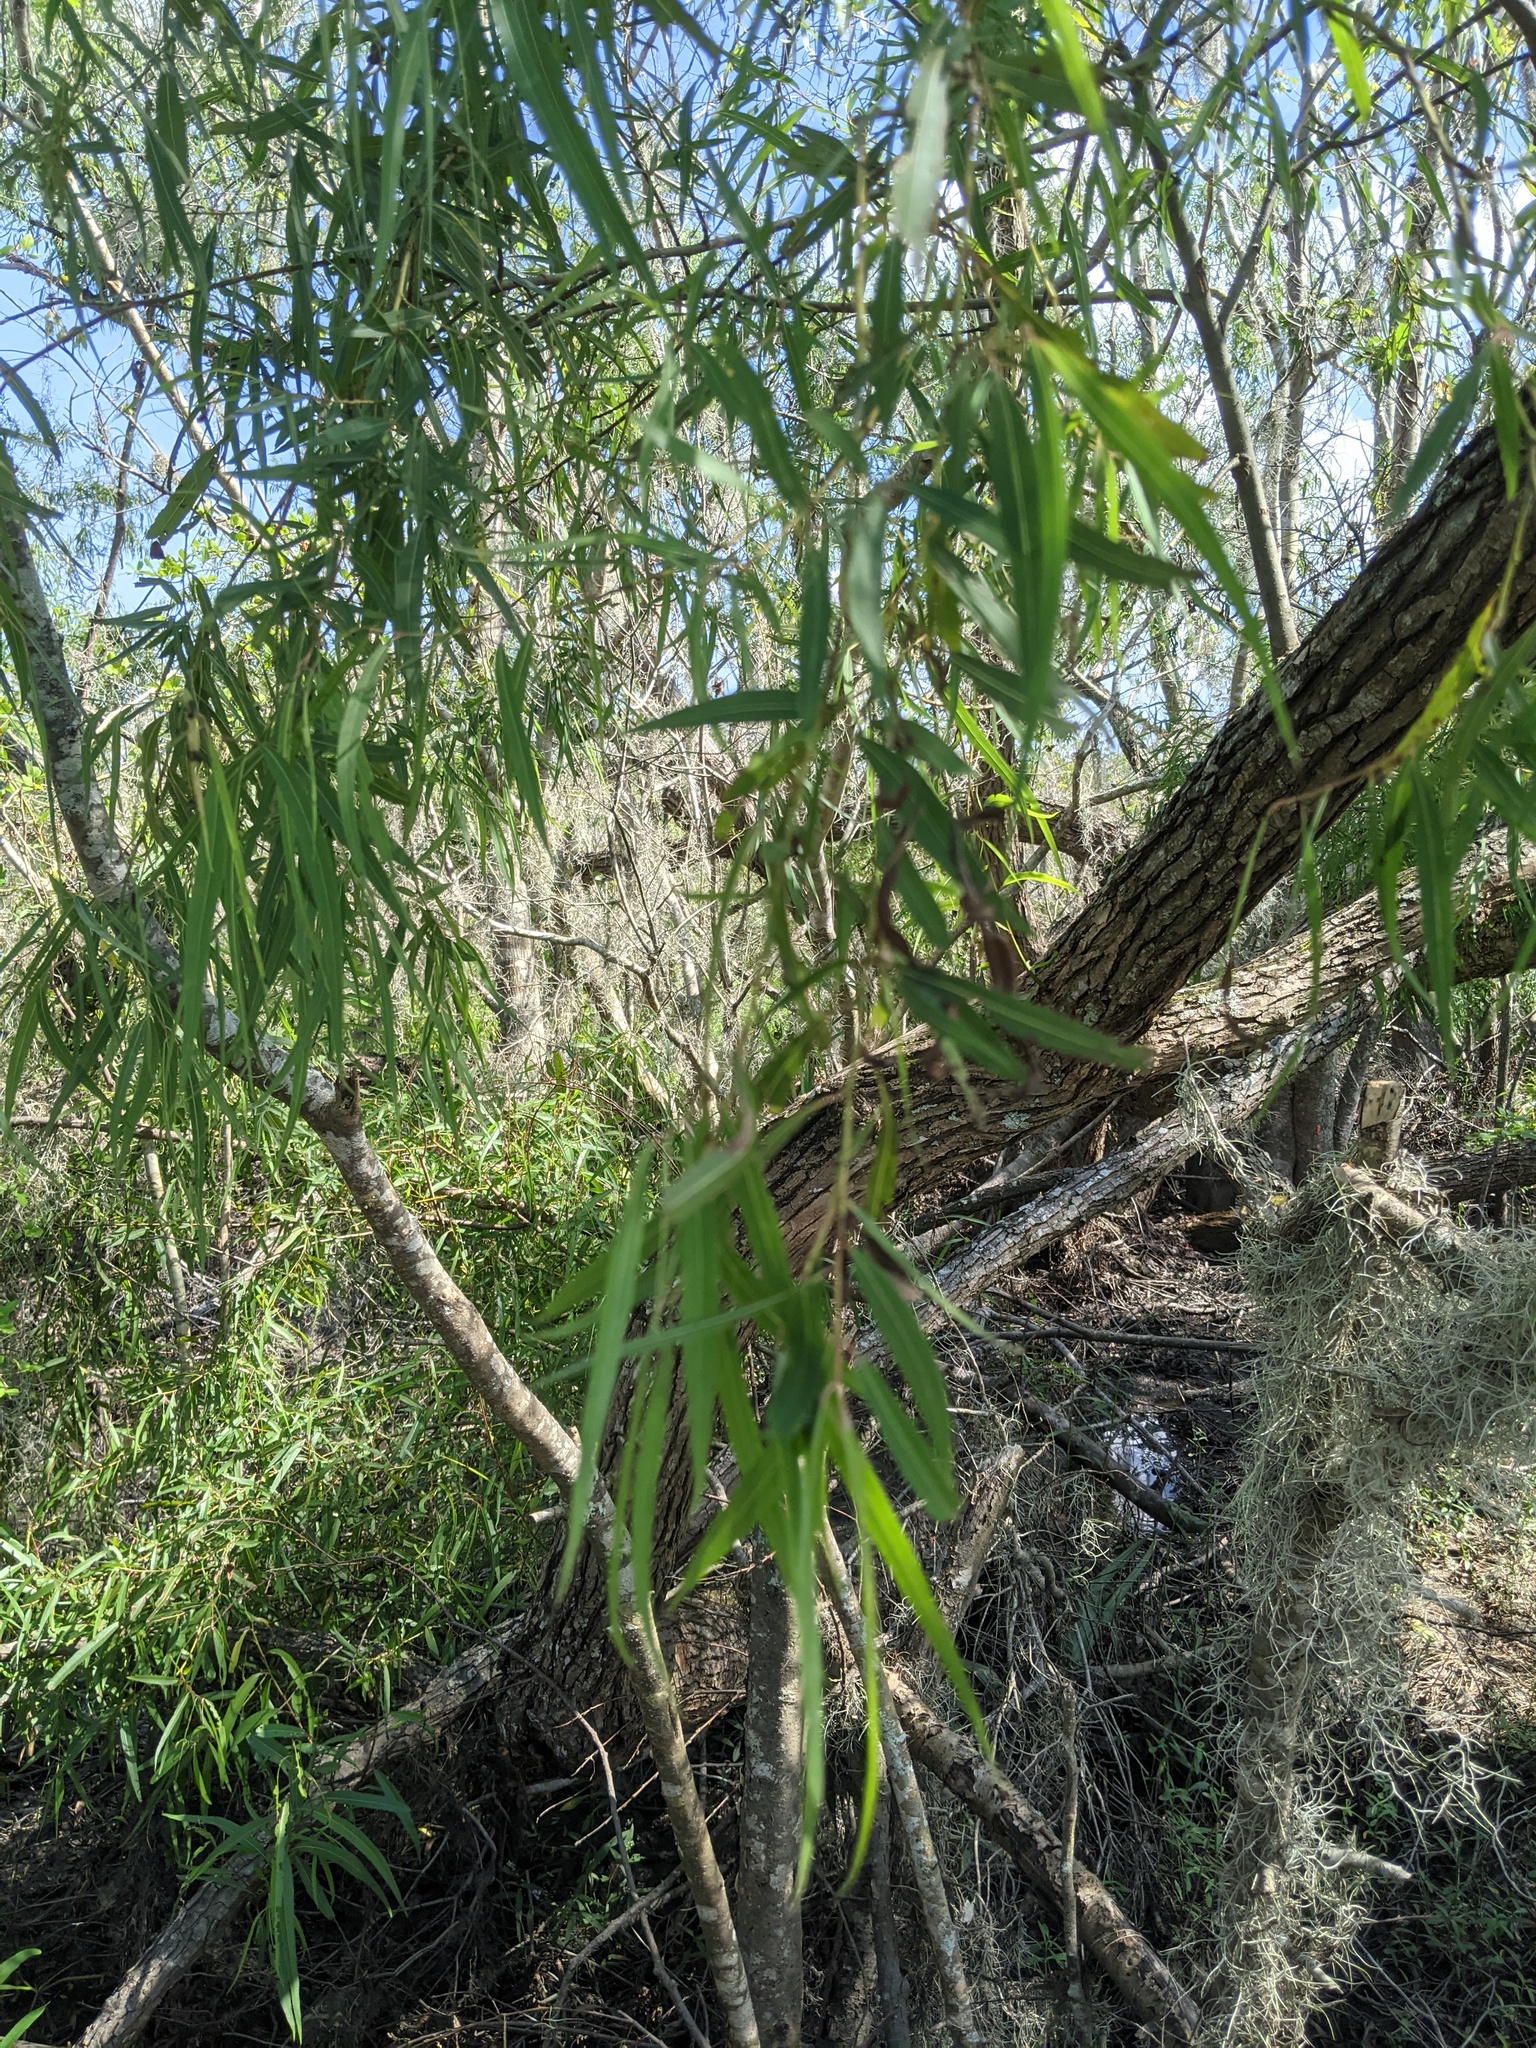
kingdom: Plantae
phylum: Tracheophyta
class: Magnoliopsida
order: Malpighiales
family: Salicaceae
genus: Salix
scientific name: Salix nigra
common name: Black willow
